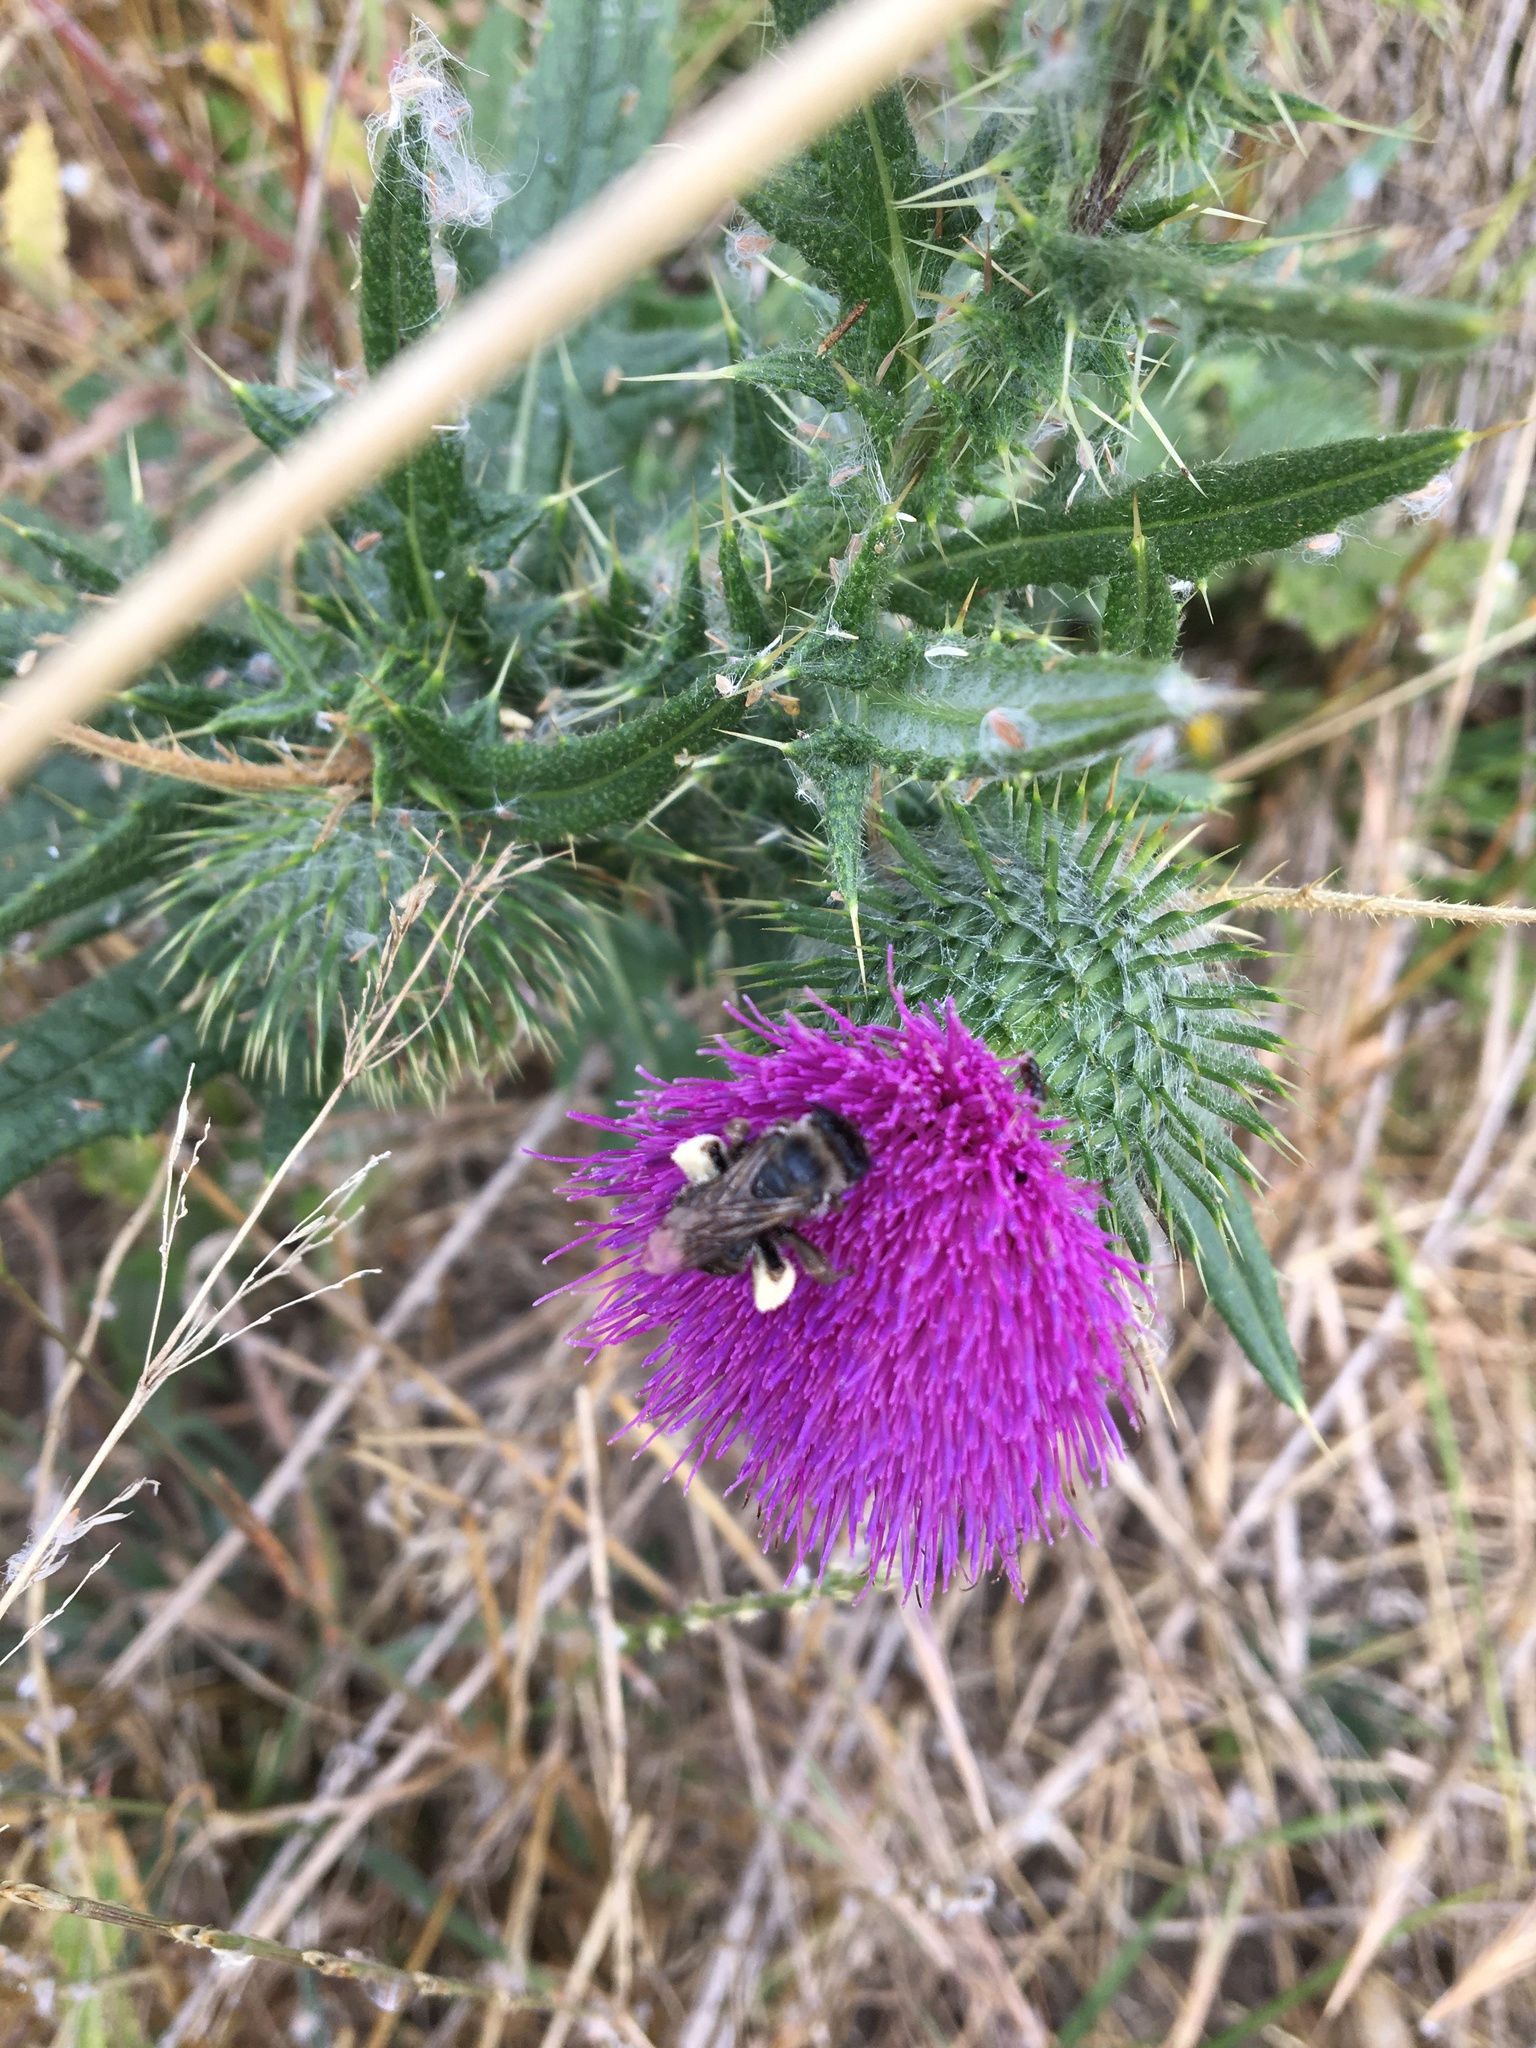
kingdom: Plantae
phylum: Tracheophyta
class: Magnoliopsida
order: Asterales
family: Asteraceae
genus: Cirsium
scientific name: Cirsium vulgare
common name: Bull thistle
